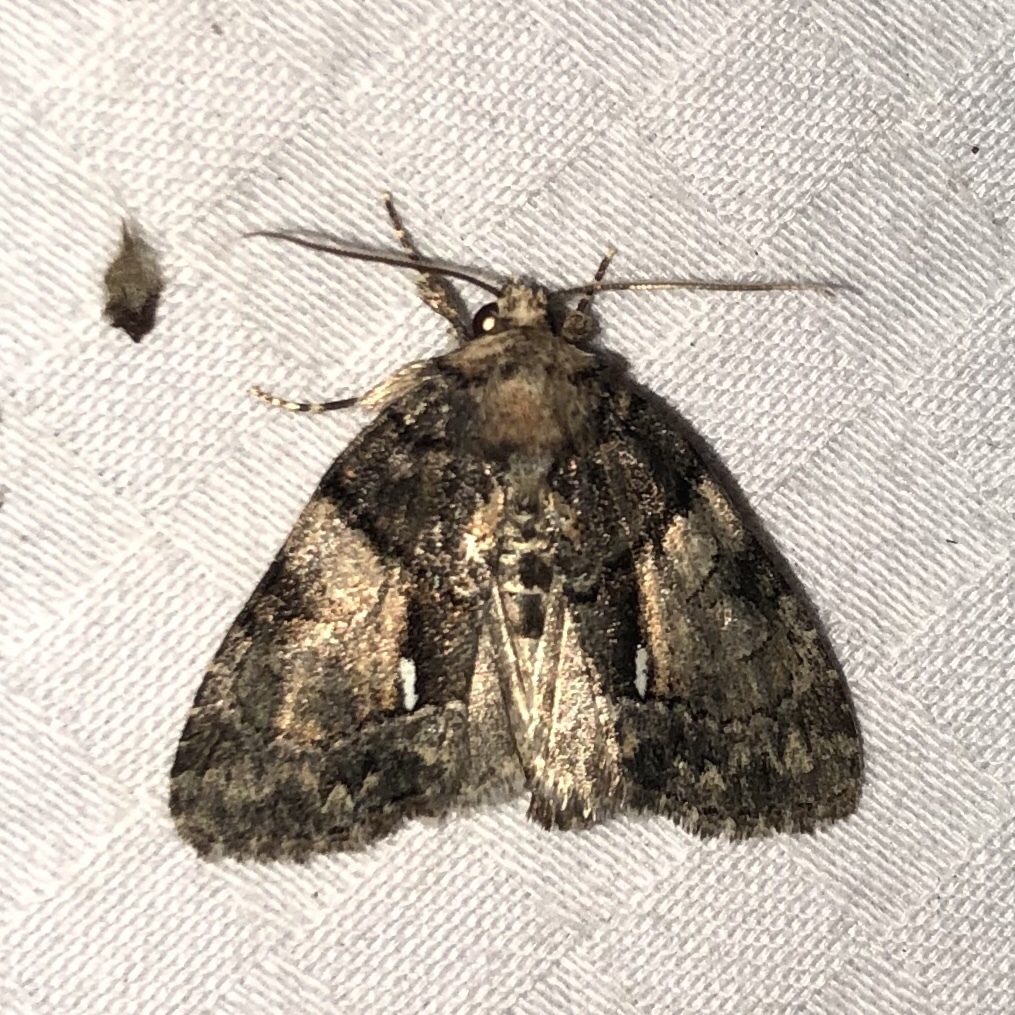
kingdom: Animalia
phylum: Arthropoda
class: Insecta
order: Lepidoptera
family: Noctuidae
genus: Chytonix
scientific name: Chytonix palliatricula
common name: Cloaked marvel
